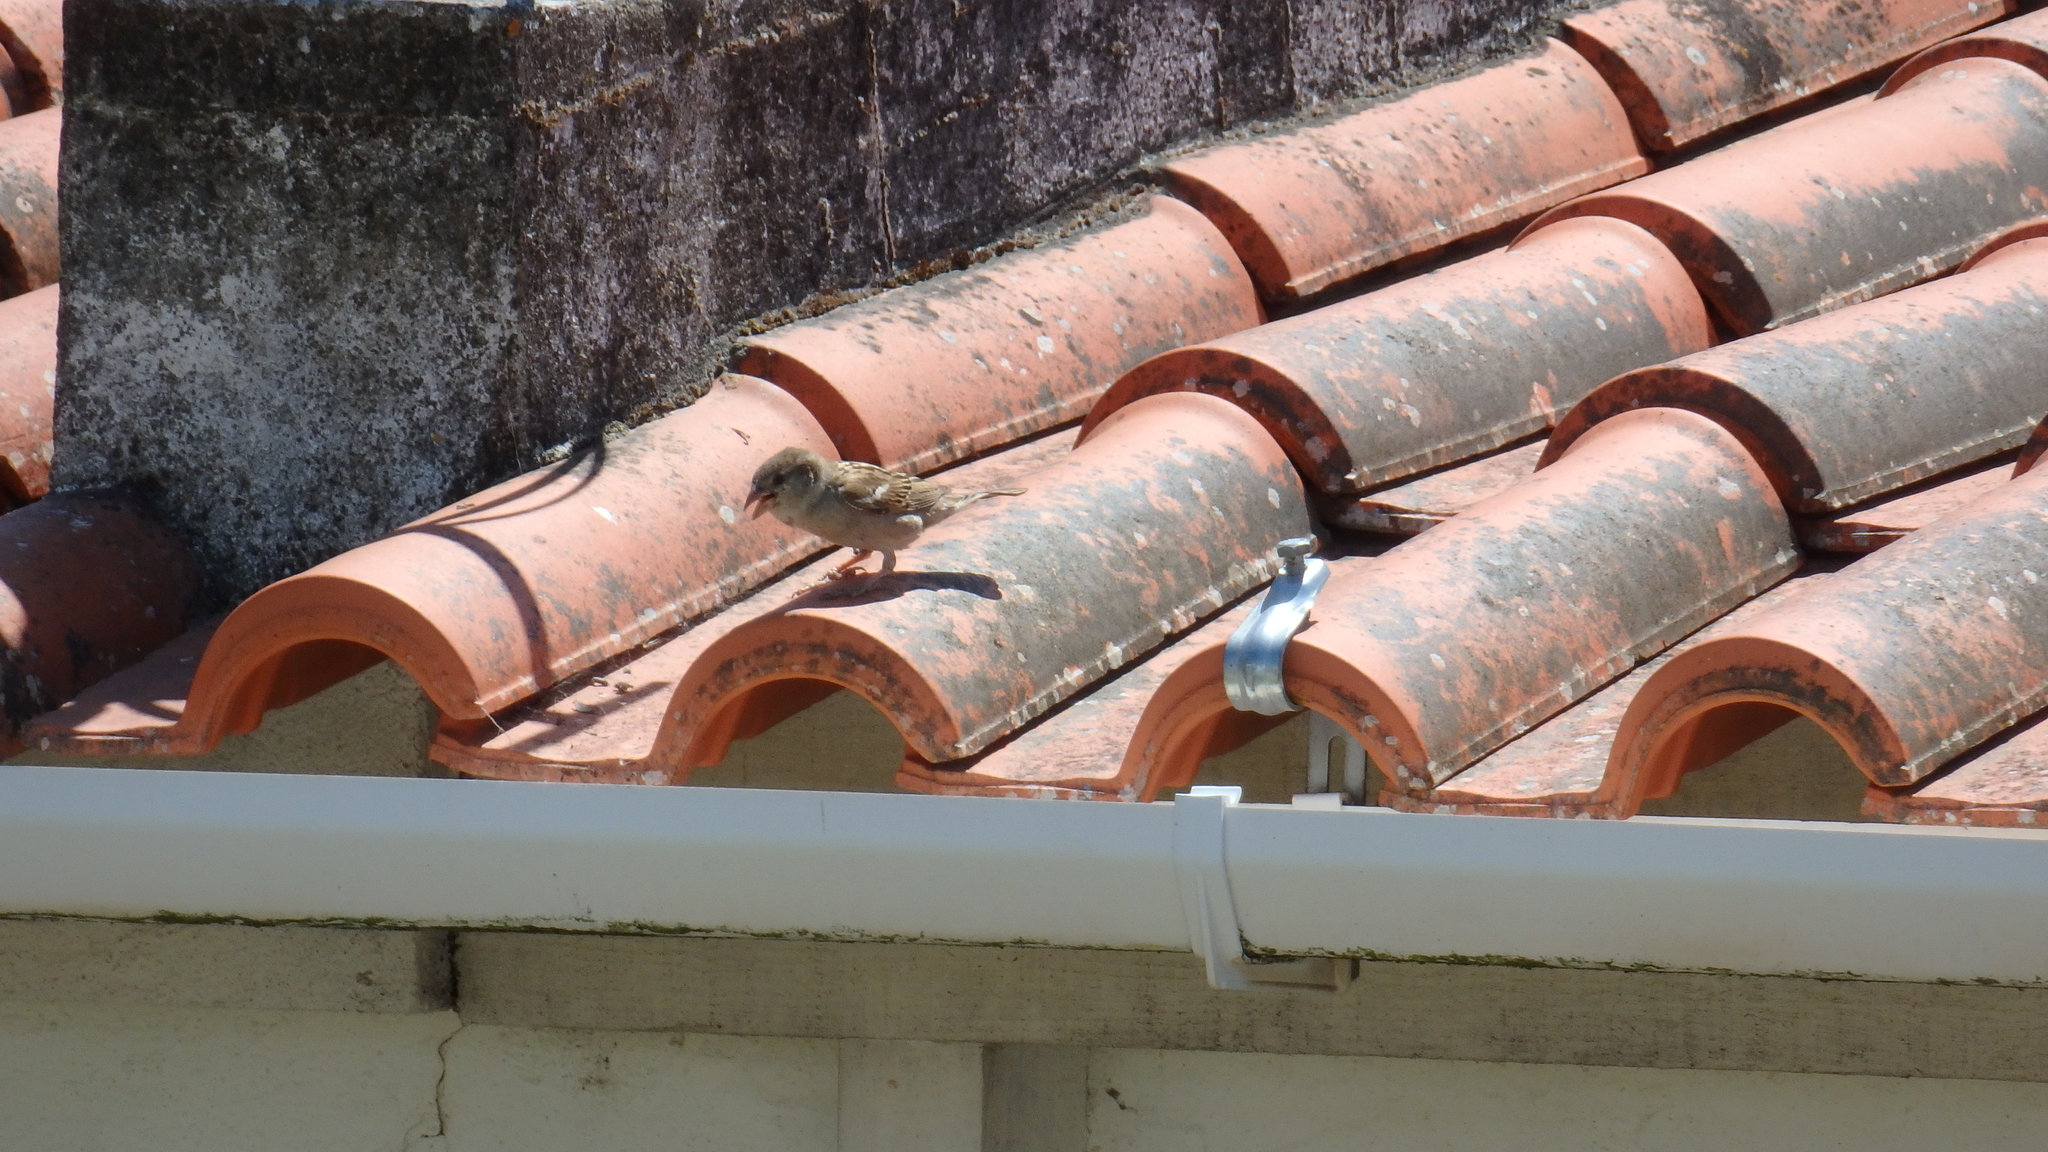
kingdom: Animalia
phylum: Chordata
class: Aves
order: Passeriformes
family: Passeridae
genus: Passer
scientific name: Passer domesticus
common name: House sparrow
